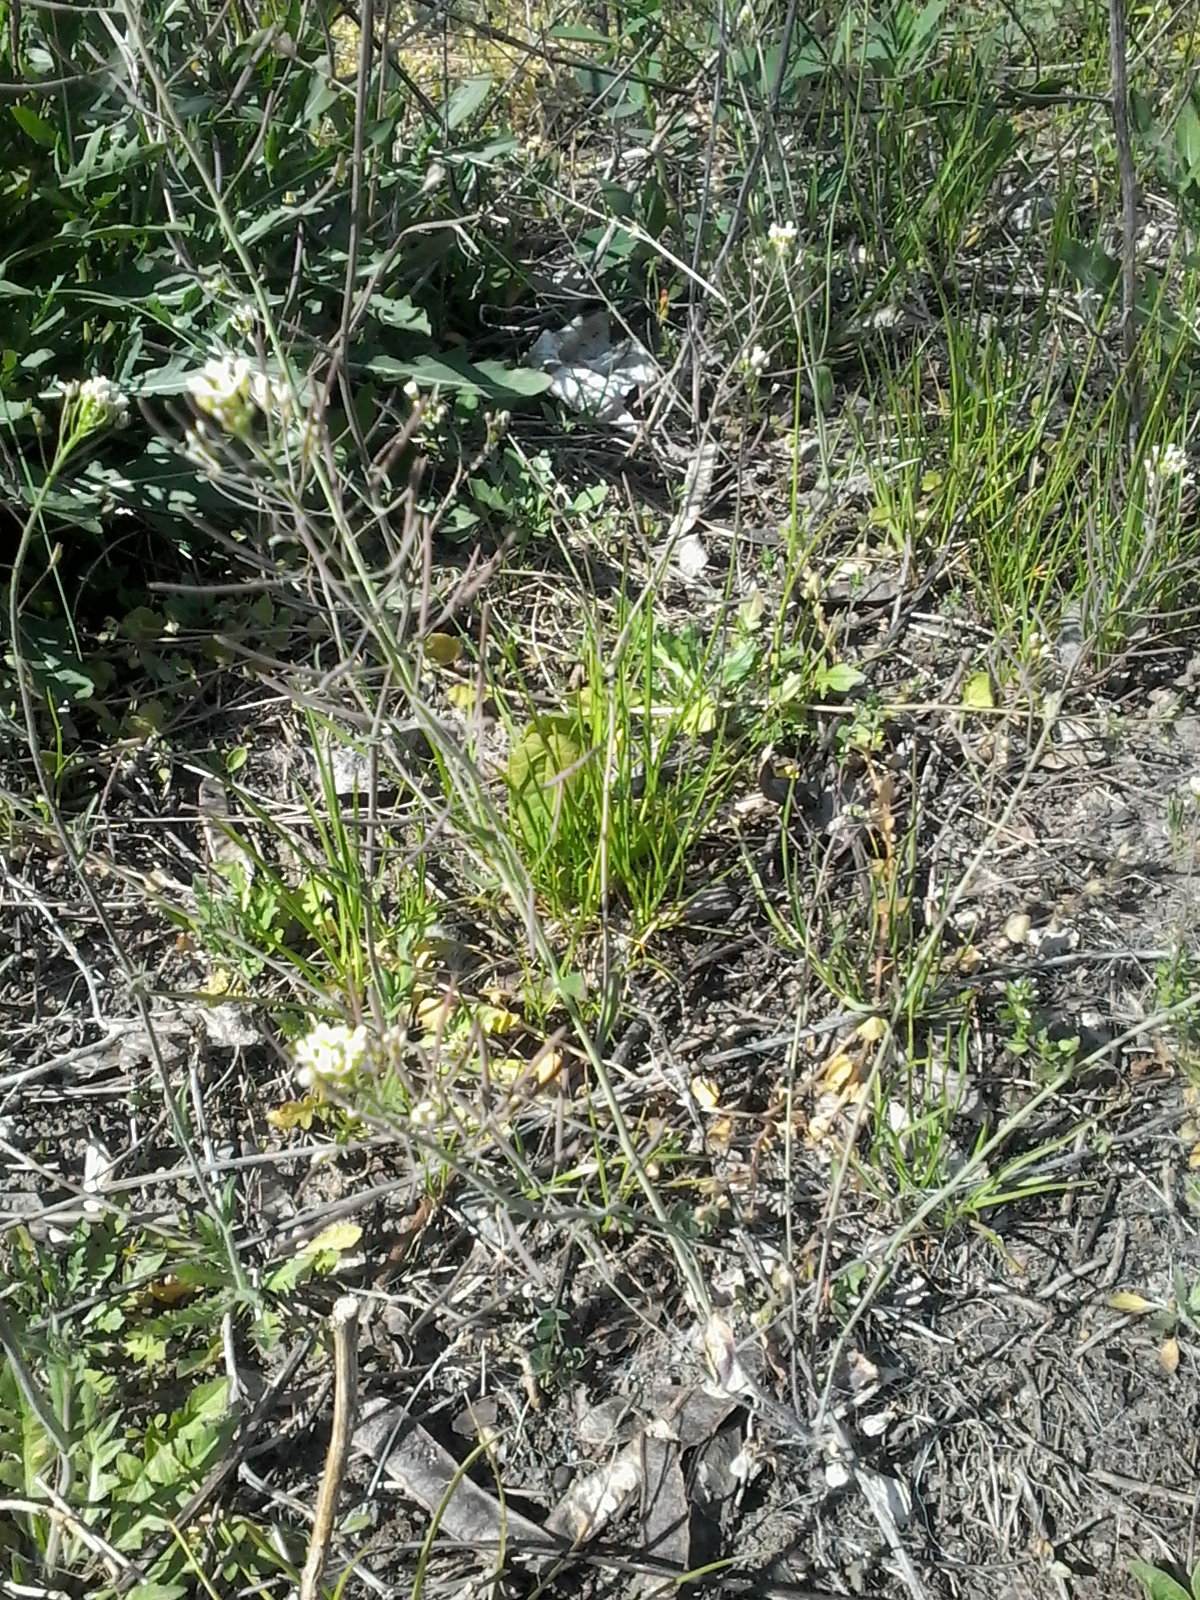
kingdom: Plantae
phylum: Tracheophyta
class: Magnoliopsida
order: Brassicales
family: Brassicaceae
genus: Arabidopsis
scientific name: Arabidopsis thaliana
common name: Thale cress
